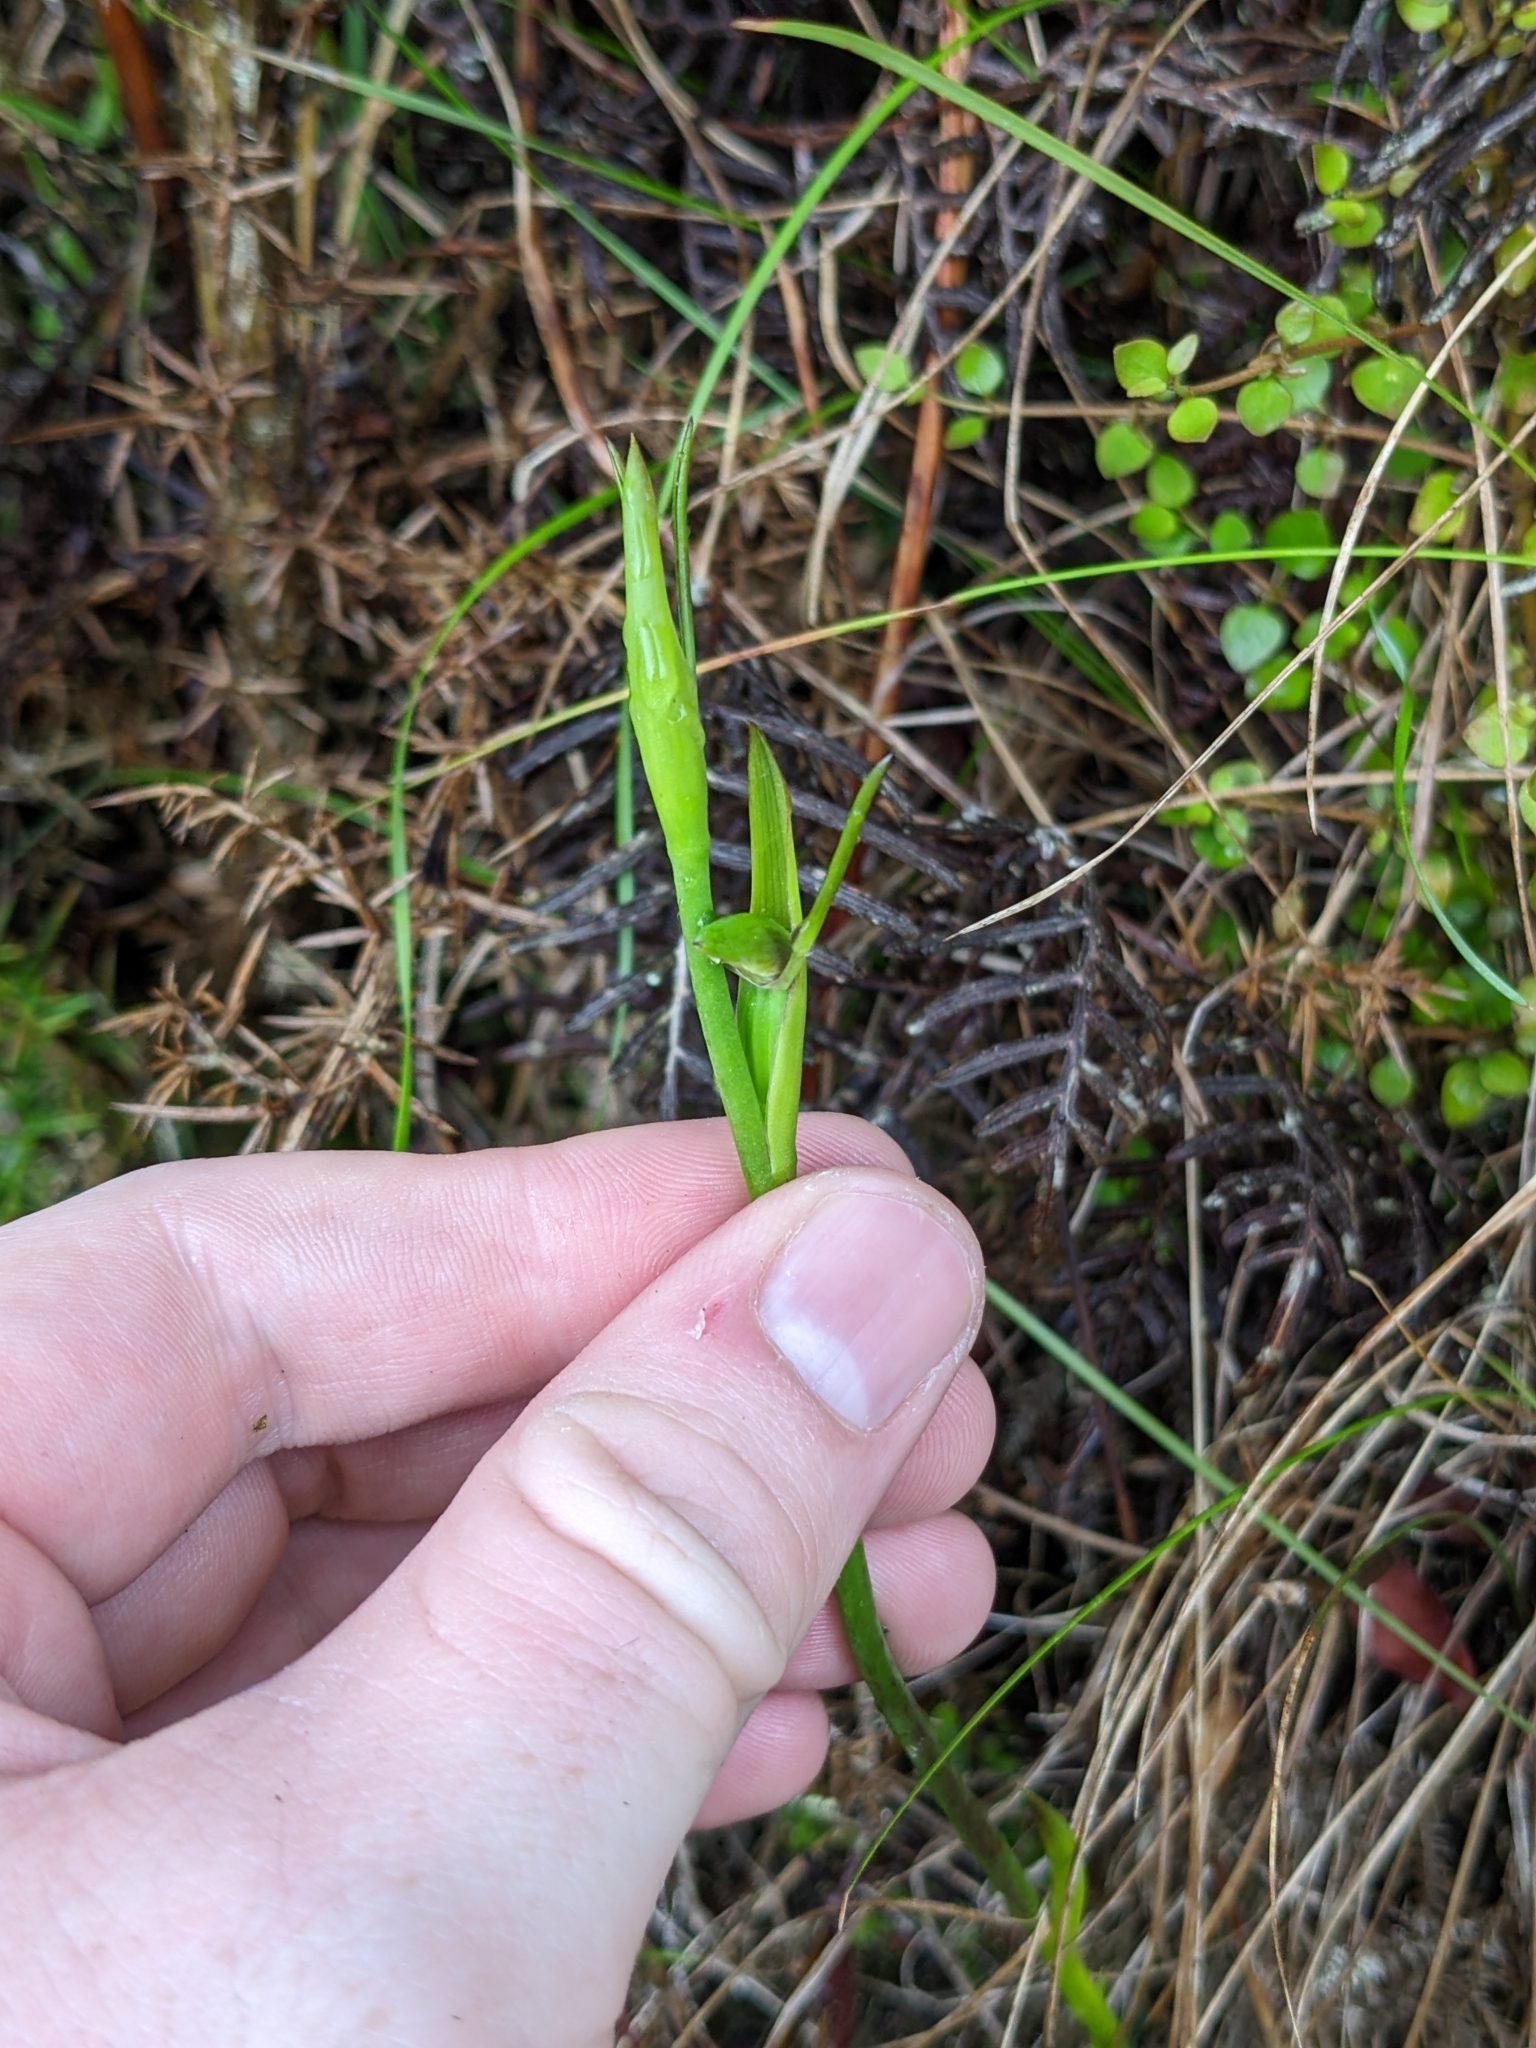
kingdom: Plantae
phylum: Tracheophyta
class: Liliopsida
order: Asparagales
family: Orchidaceae
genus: Orthoceras
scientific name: Orthoceras novae-zeelandiae
